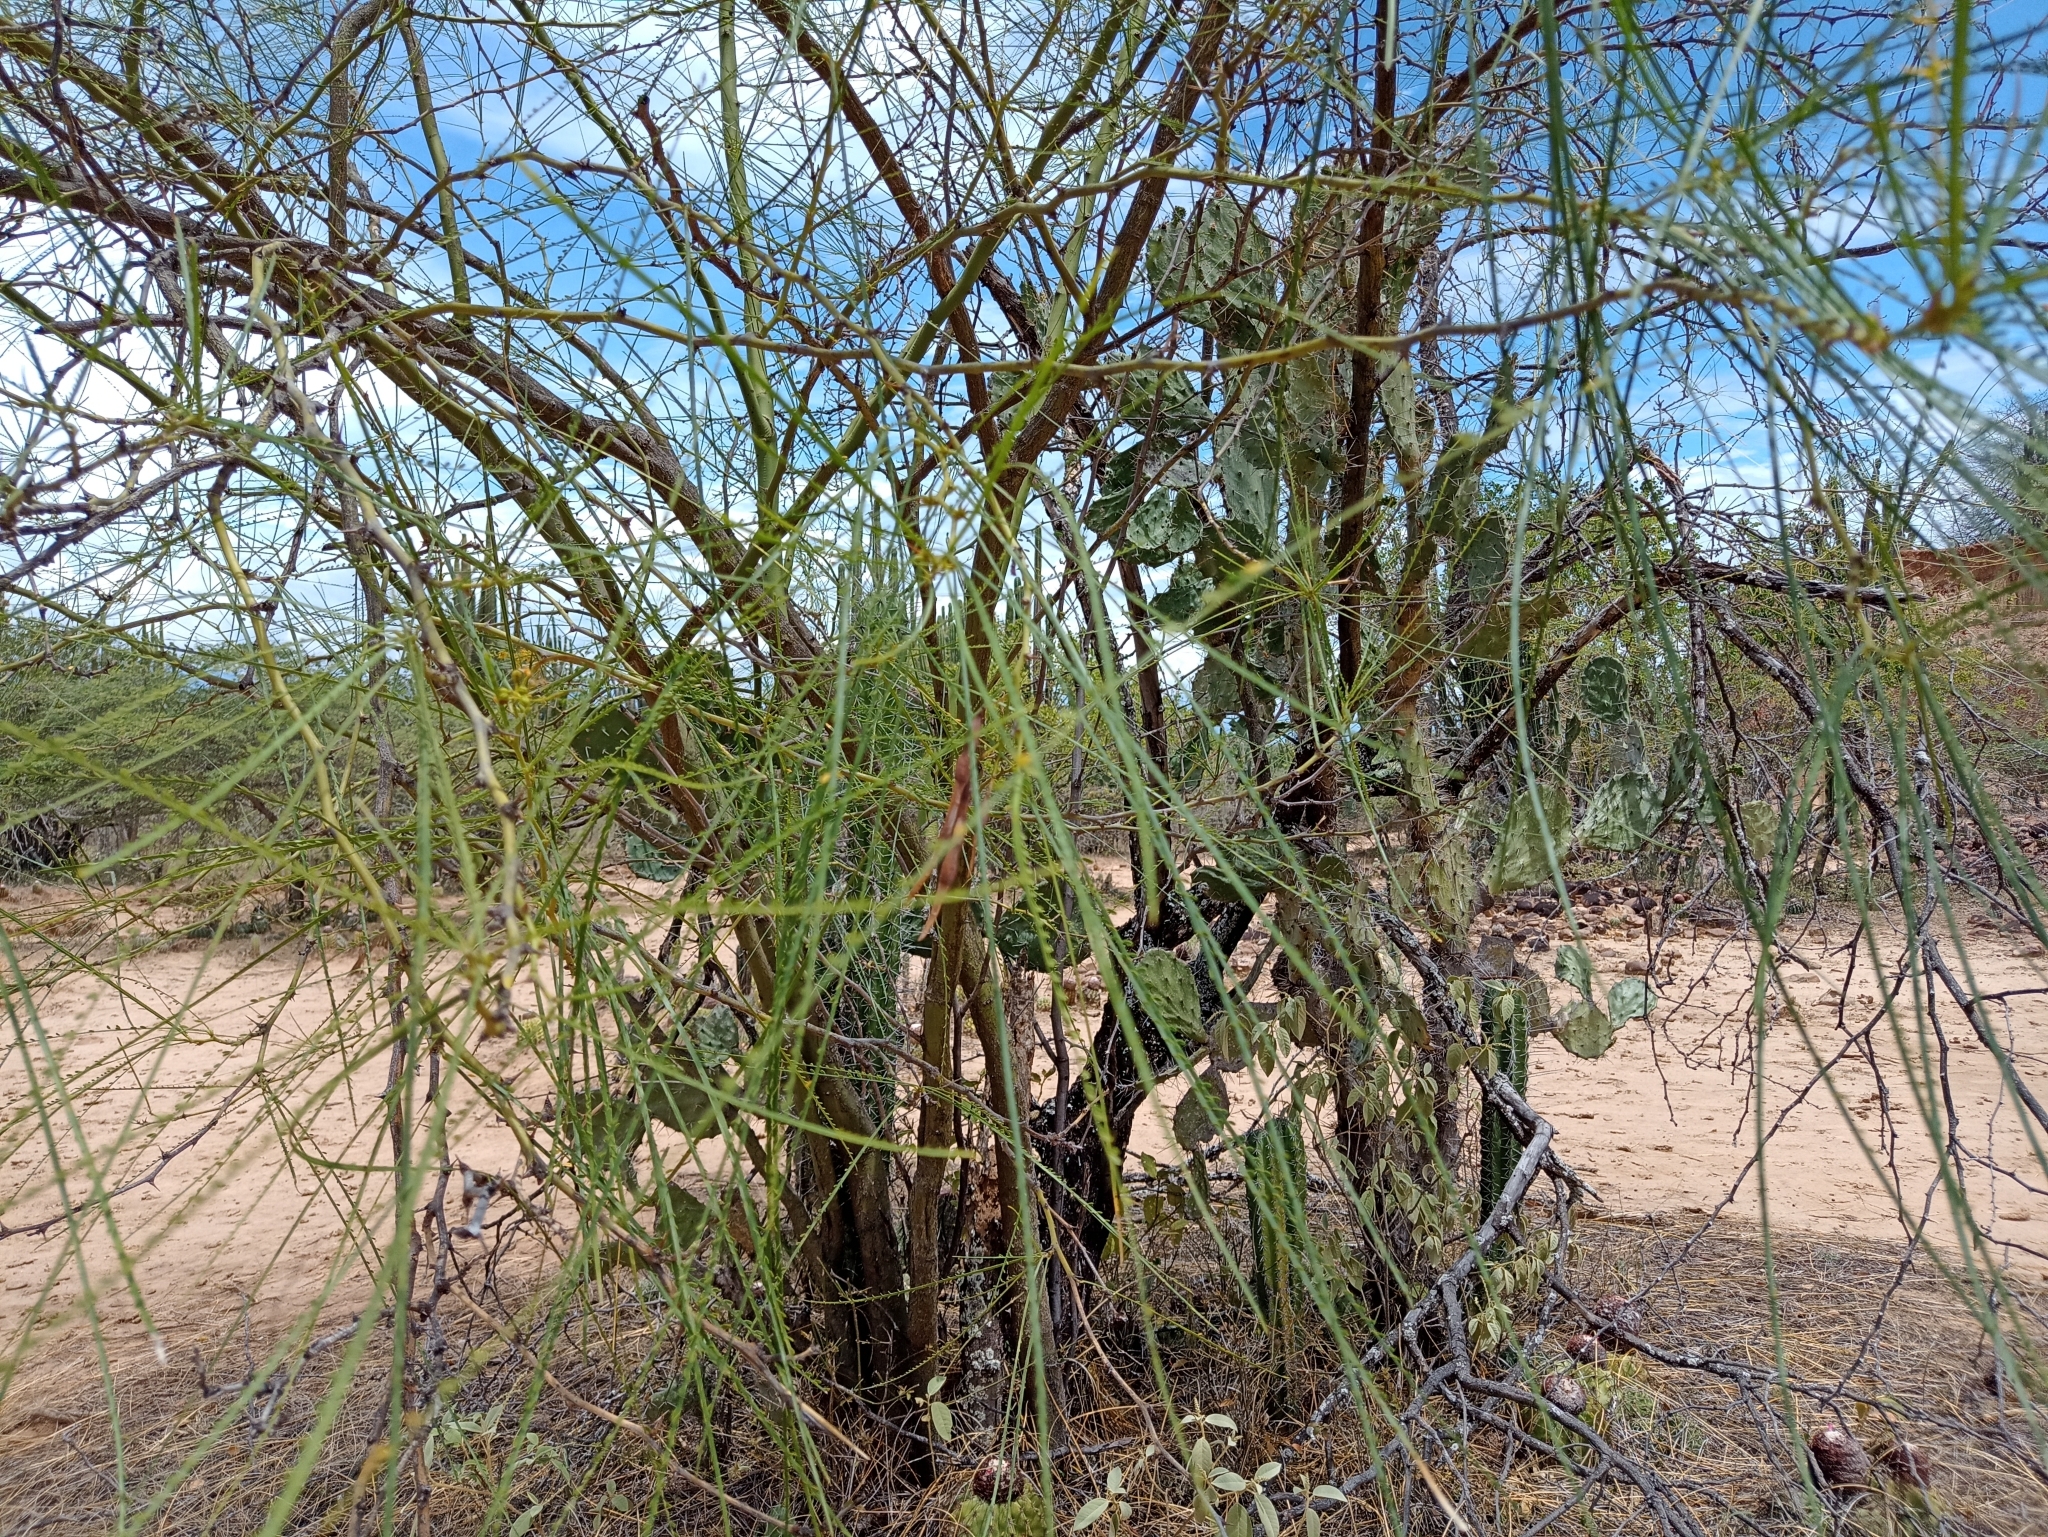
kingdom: Plantae
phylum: Tracheophyta
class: Magnoliopsida
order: Fabales
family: Fabaceae
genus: Parkinsonia
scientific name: Parkinsonia aculeata
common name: Jerusalem thorn
